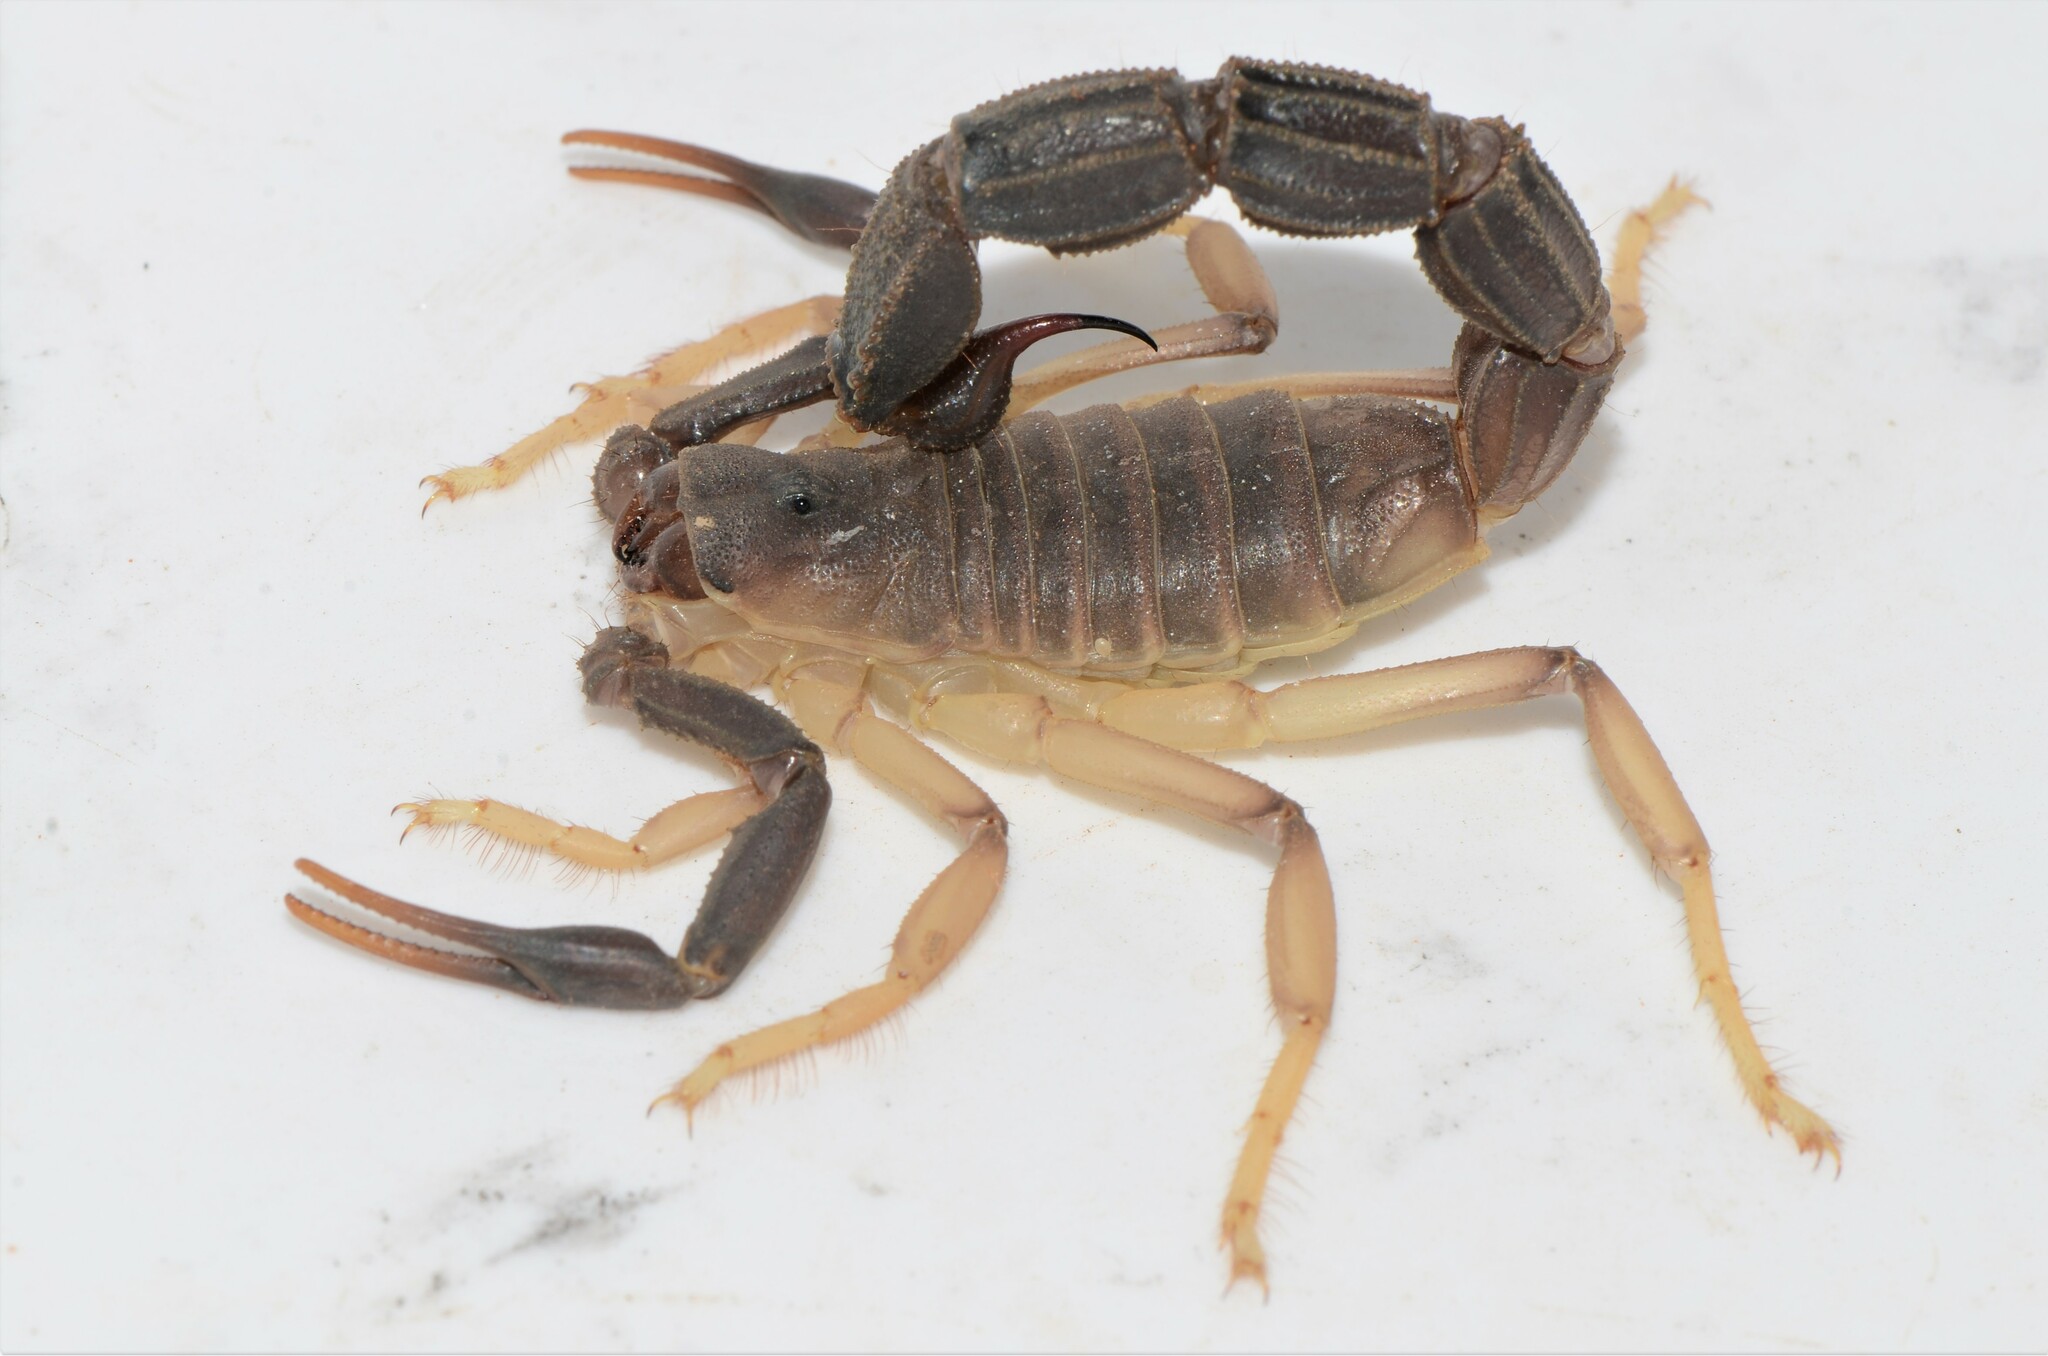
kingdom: Animalia
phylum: Arthropoda
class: Arachnida
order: Scorpiones
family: Buthidae
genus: Parabuthus
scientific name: Parabuthus granulatus
